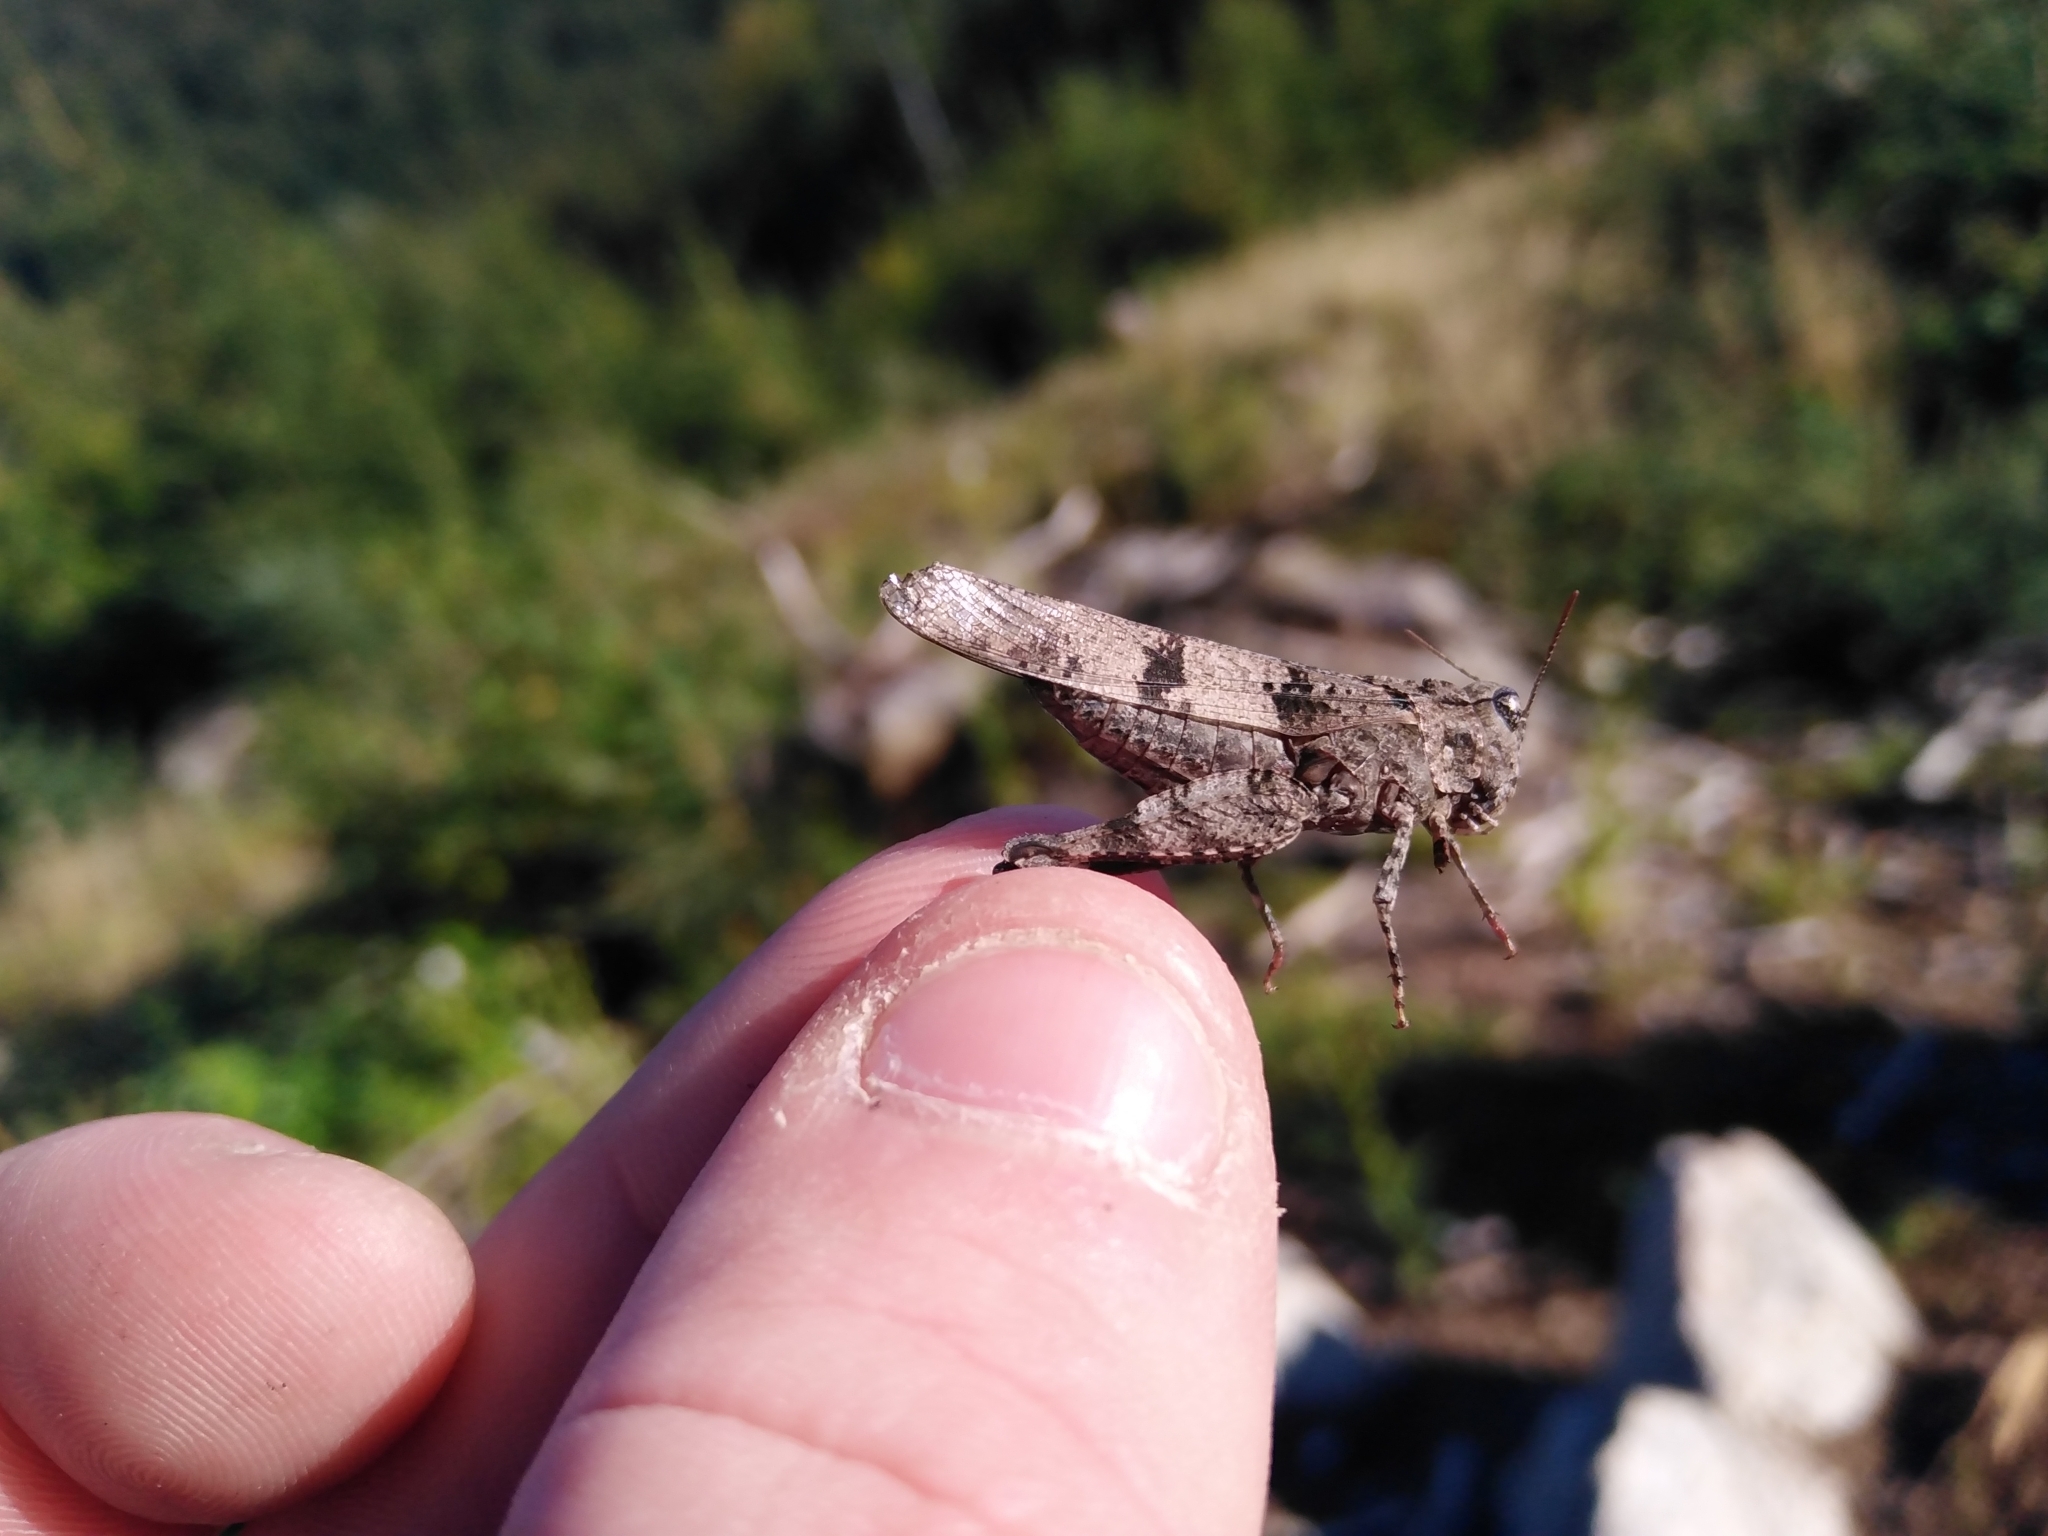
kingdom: Animalia
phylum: Arthropoda
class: Insecta
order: Orthoptera
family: Acrididae
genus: Oedipoda
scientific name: Oedipoda caerulescens
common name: Blue-winged grasshopper
